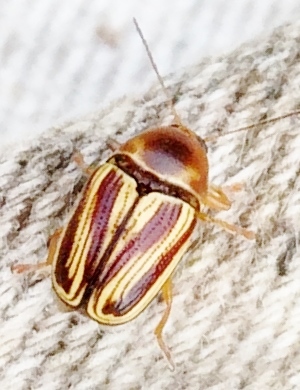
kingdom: Animalia
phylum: Arthropoda
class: Insecta
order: Coleoptera
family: Chrysomelidae
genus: Cryptocephalus
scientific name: Cryptocephalus obsoletus
